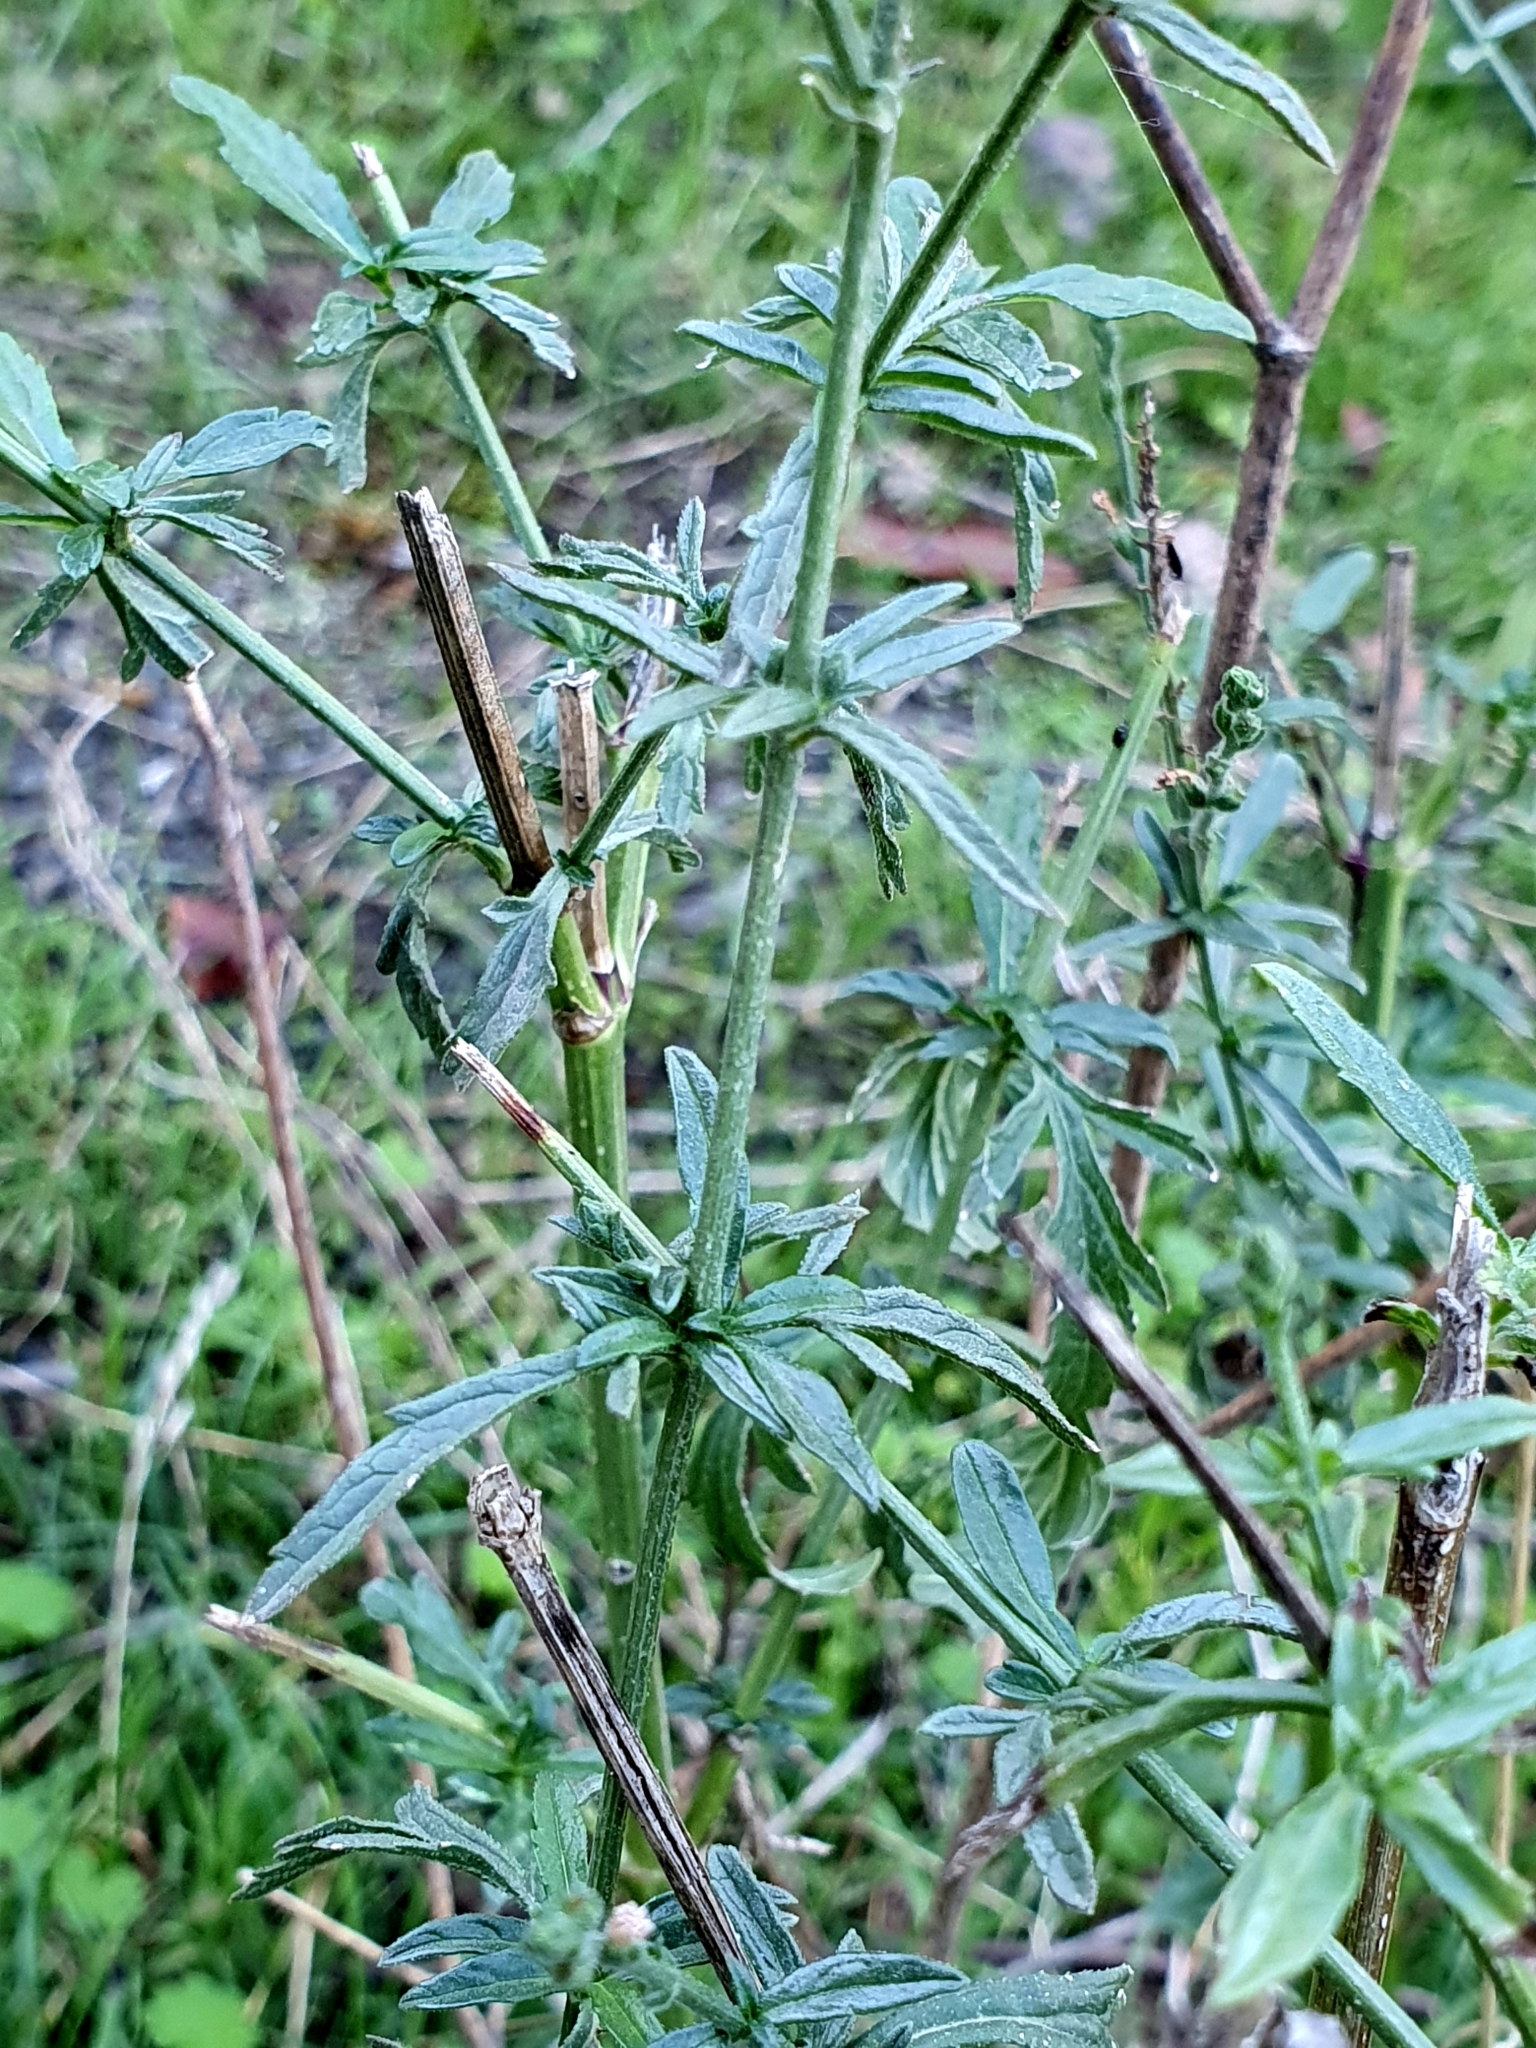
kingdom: Plantae
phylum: Tracheophyta
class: Magnoliopsida
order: Lamiales
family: Verbenaceae
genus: Verbena
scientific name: Verbena officinalis
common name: Vervain
